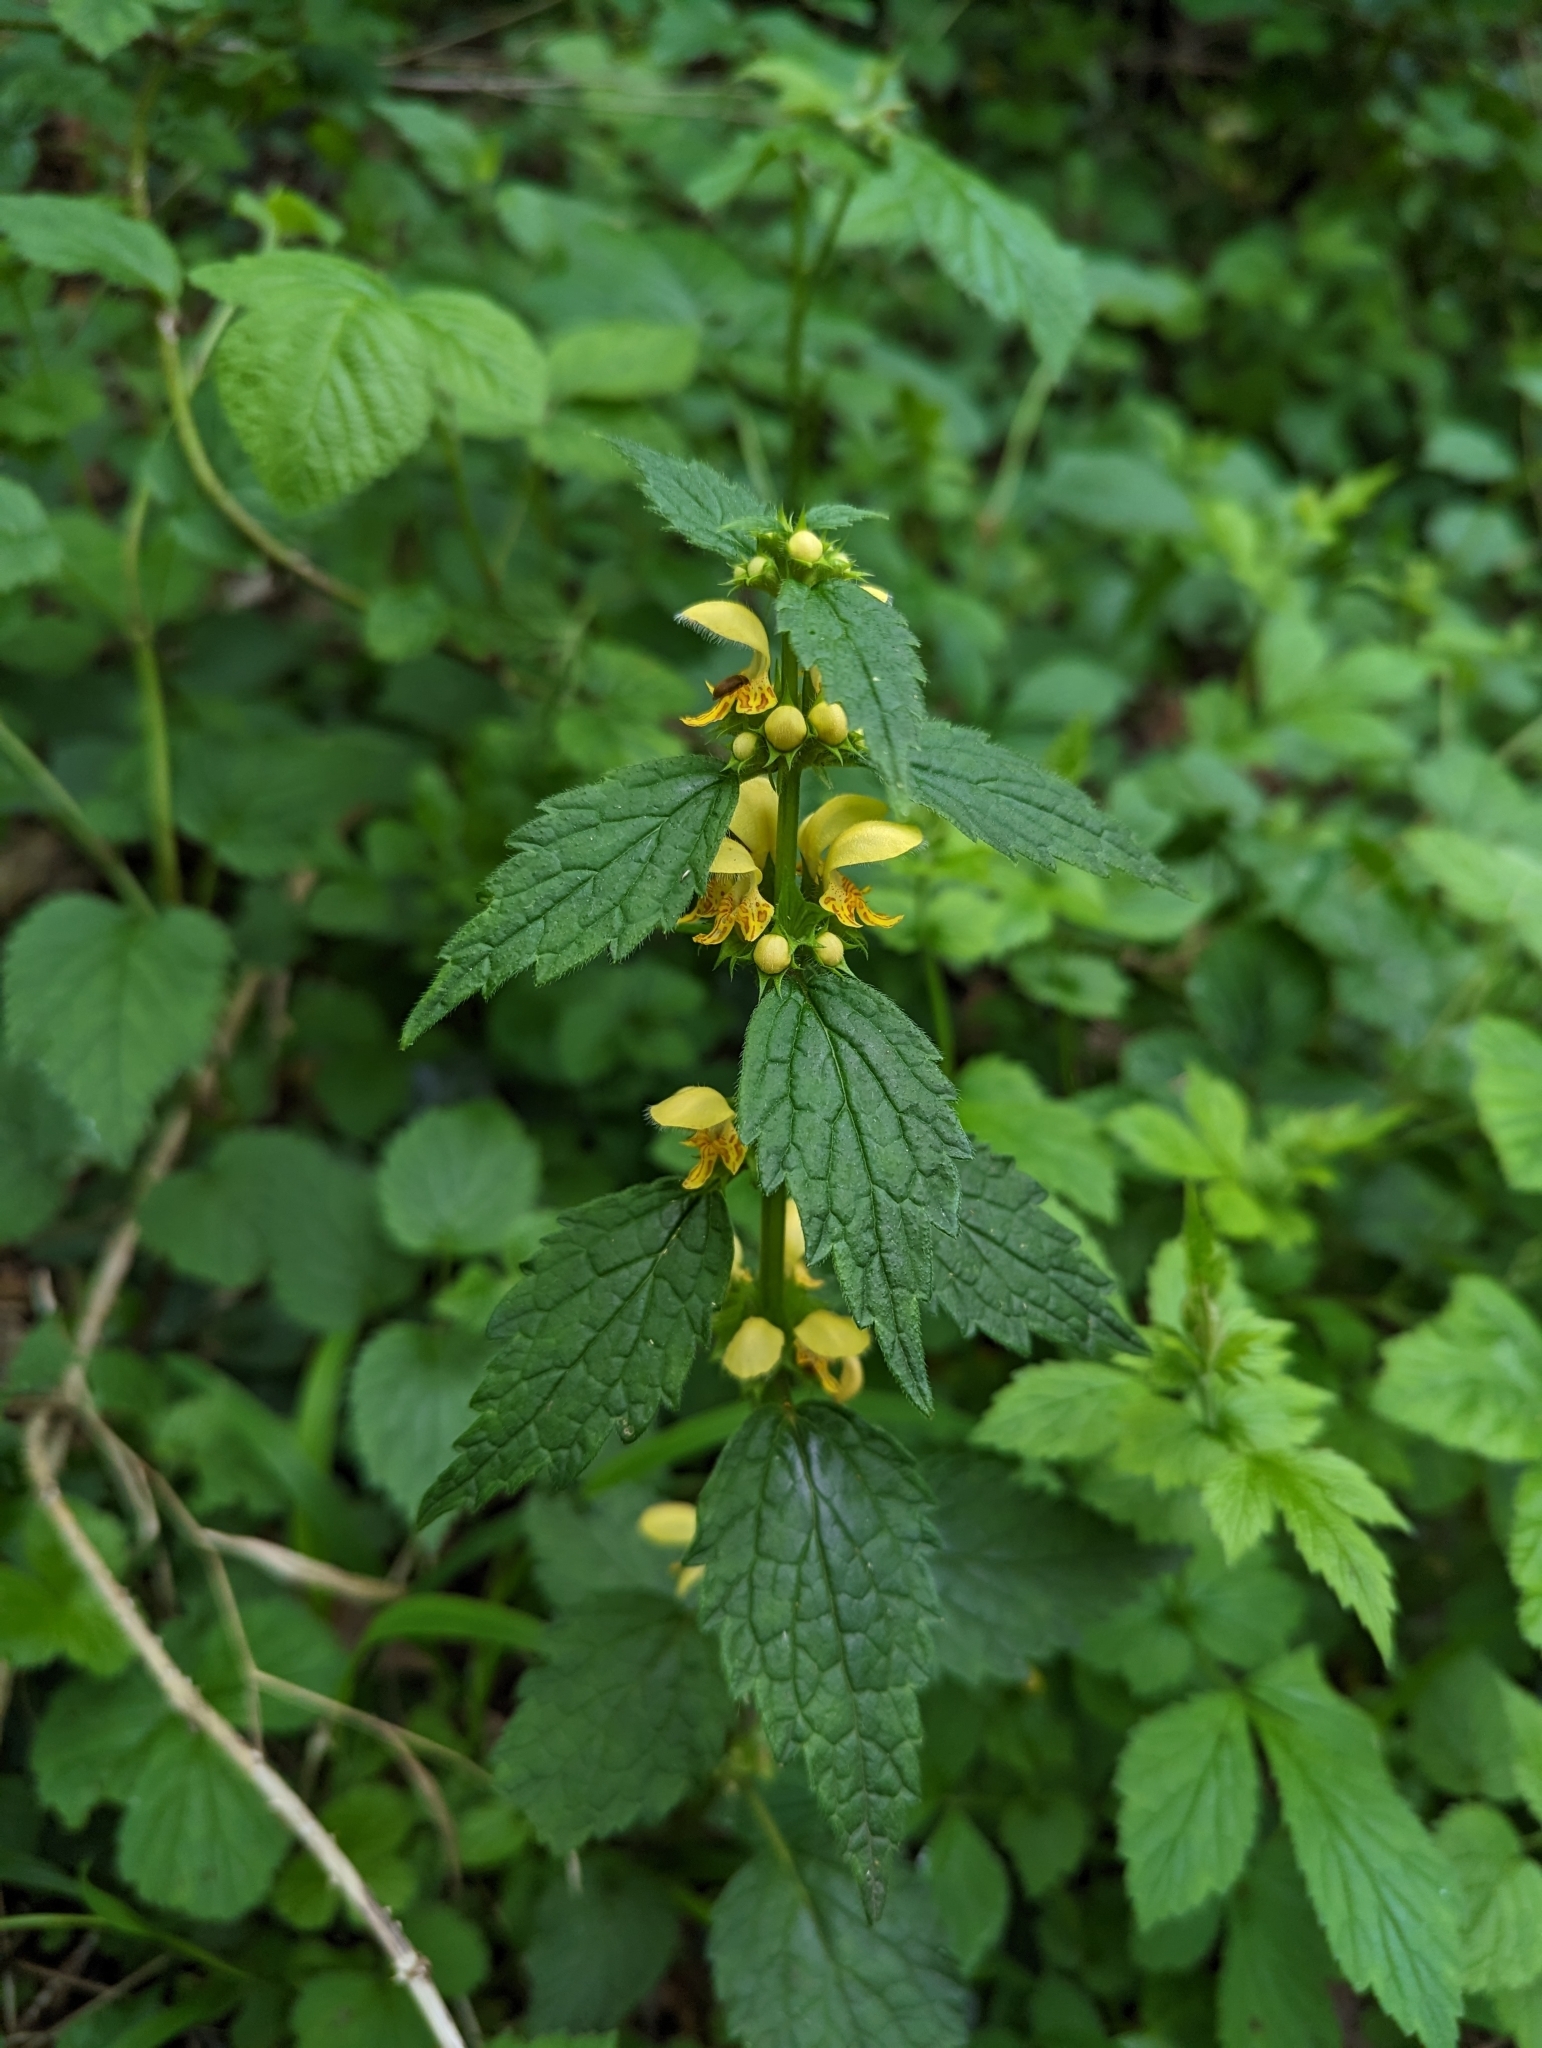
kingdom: Plantae
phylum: Tracheophyta
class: Magnoliopsida
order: Lamiales
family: Lamiaceae
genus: Lamium
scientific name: Lamium galeobdolon
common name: Yellow archangel
